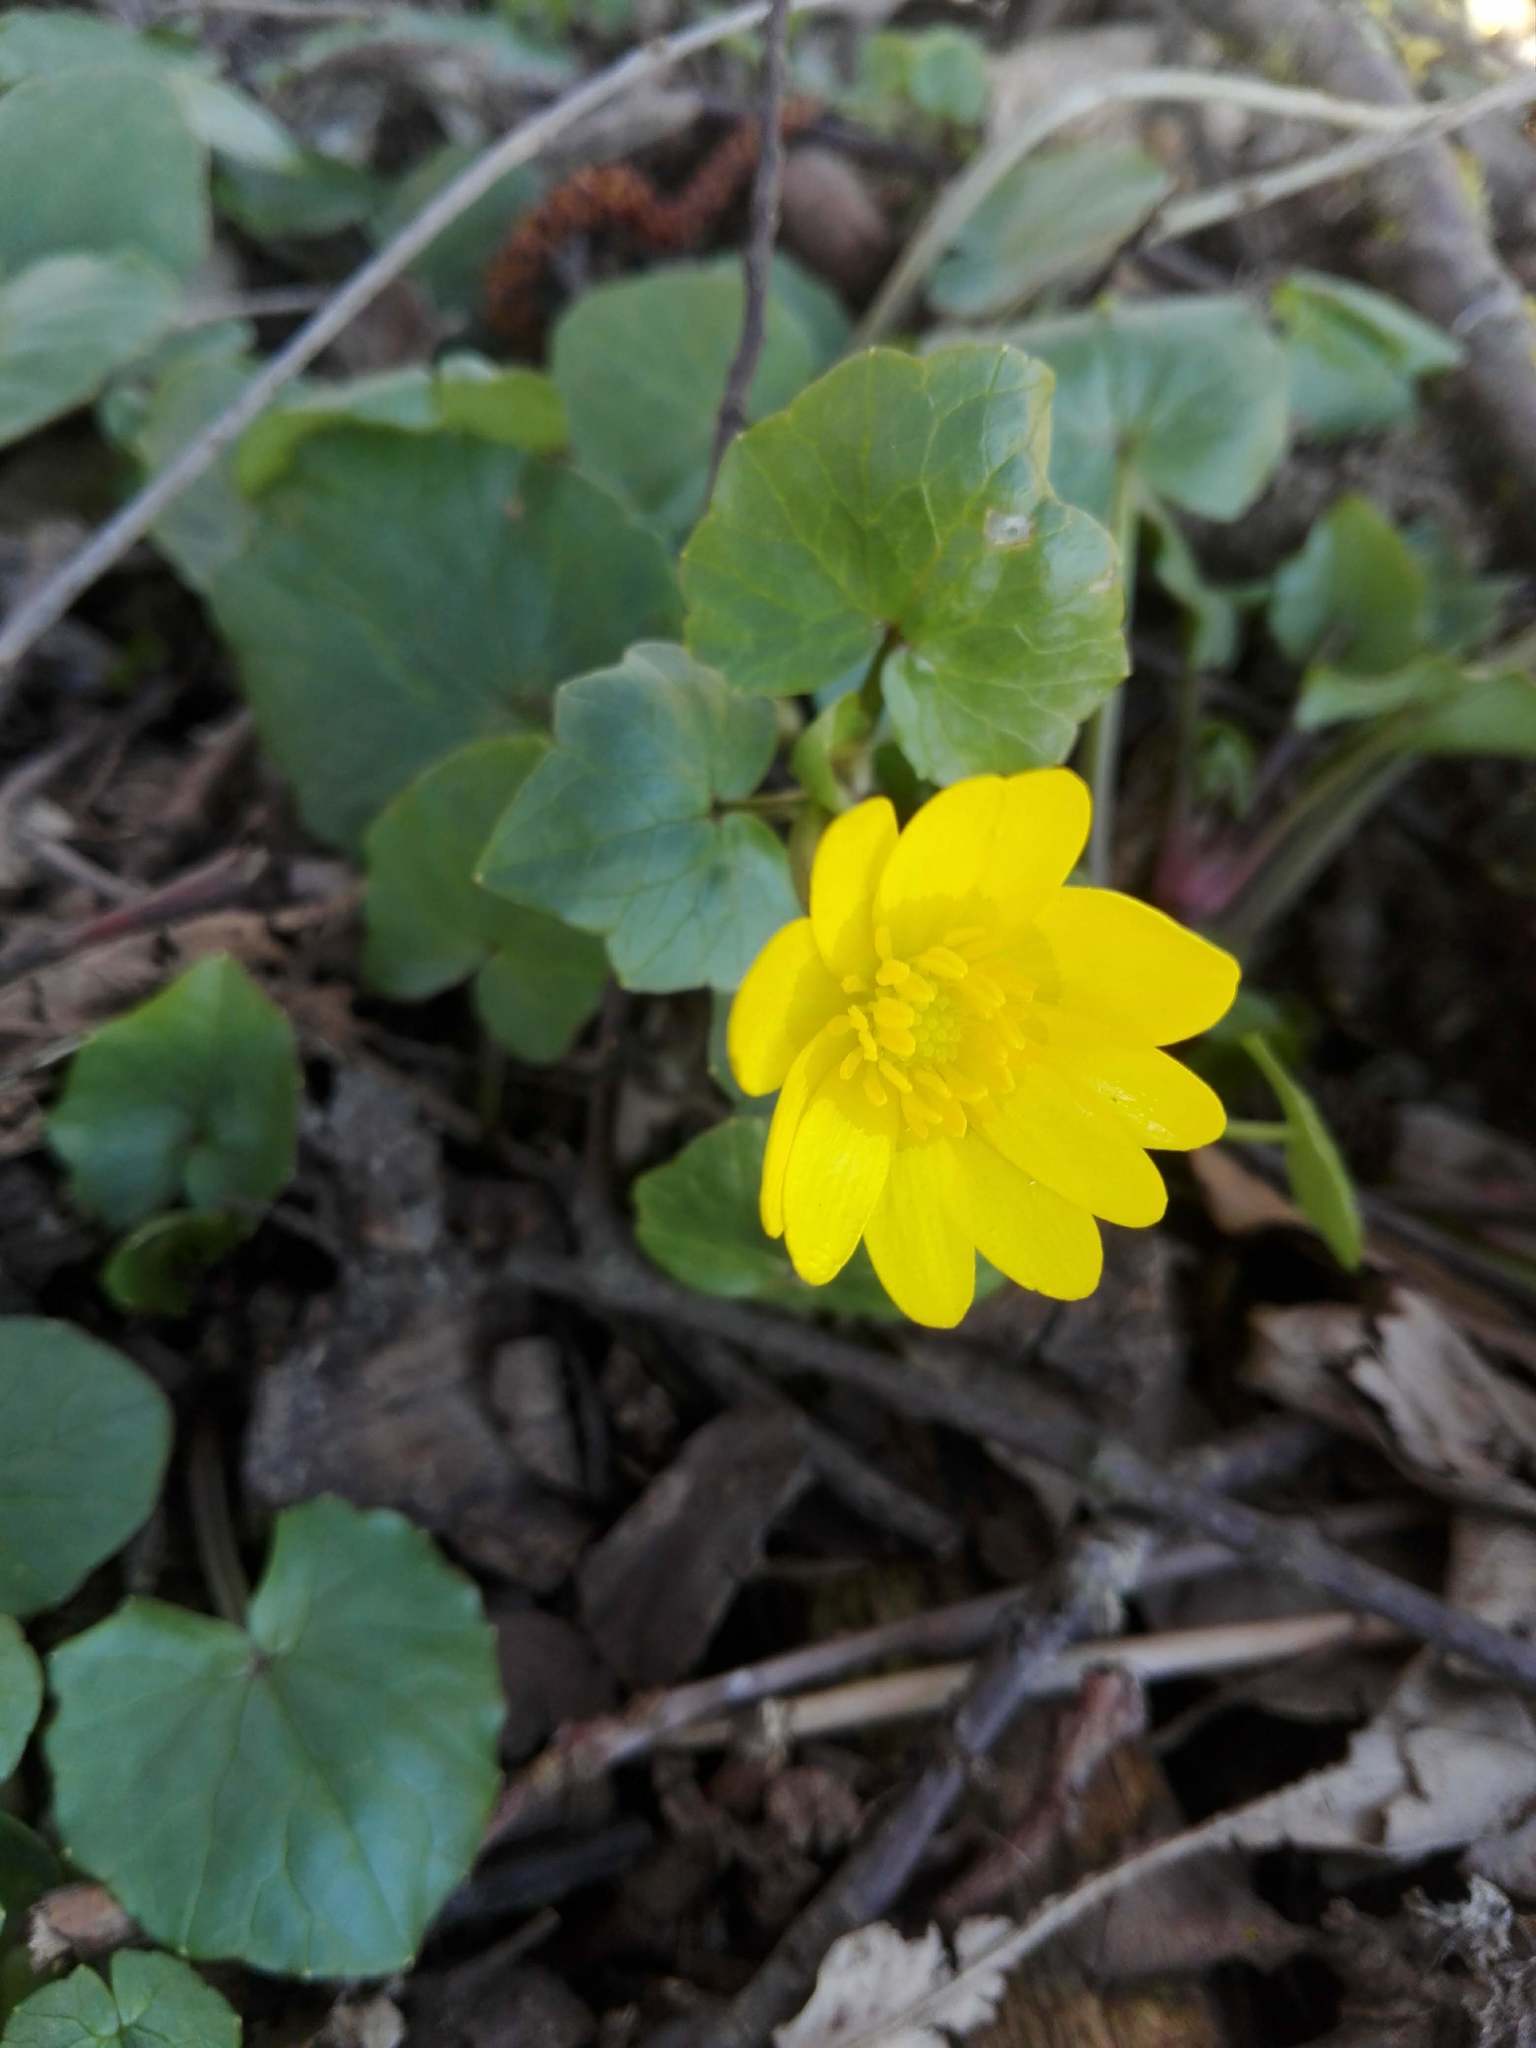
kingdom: Plantae
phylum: Tracheophyta
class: Magnoliopsida
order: Ranunculales
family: Ranunculaceae
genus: Ficaria
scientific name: Ficaria verna
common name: Lesser celandine
